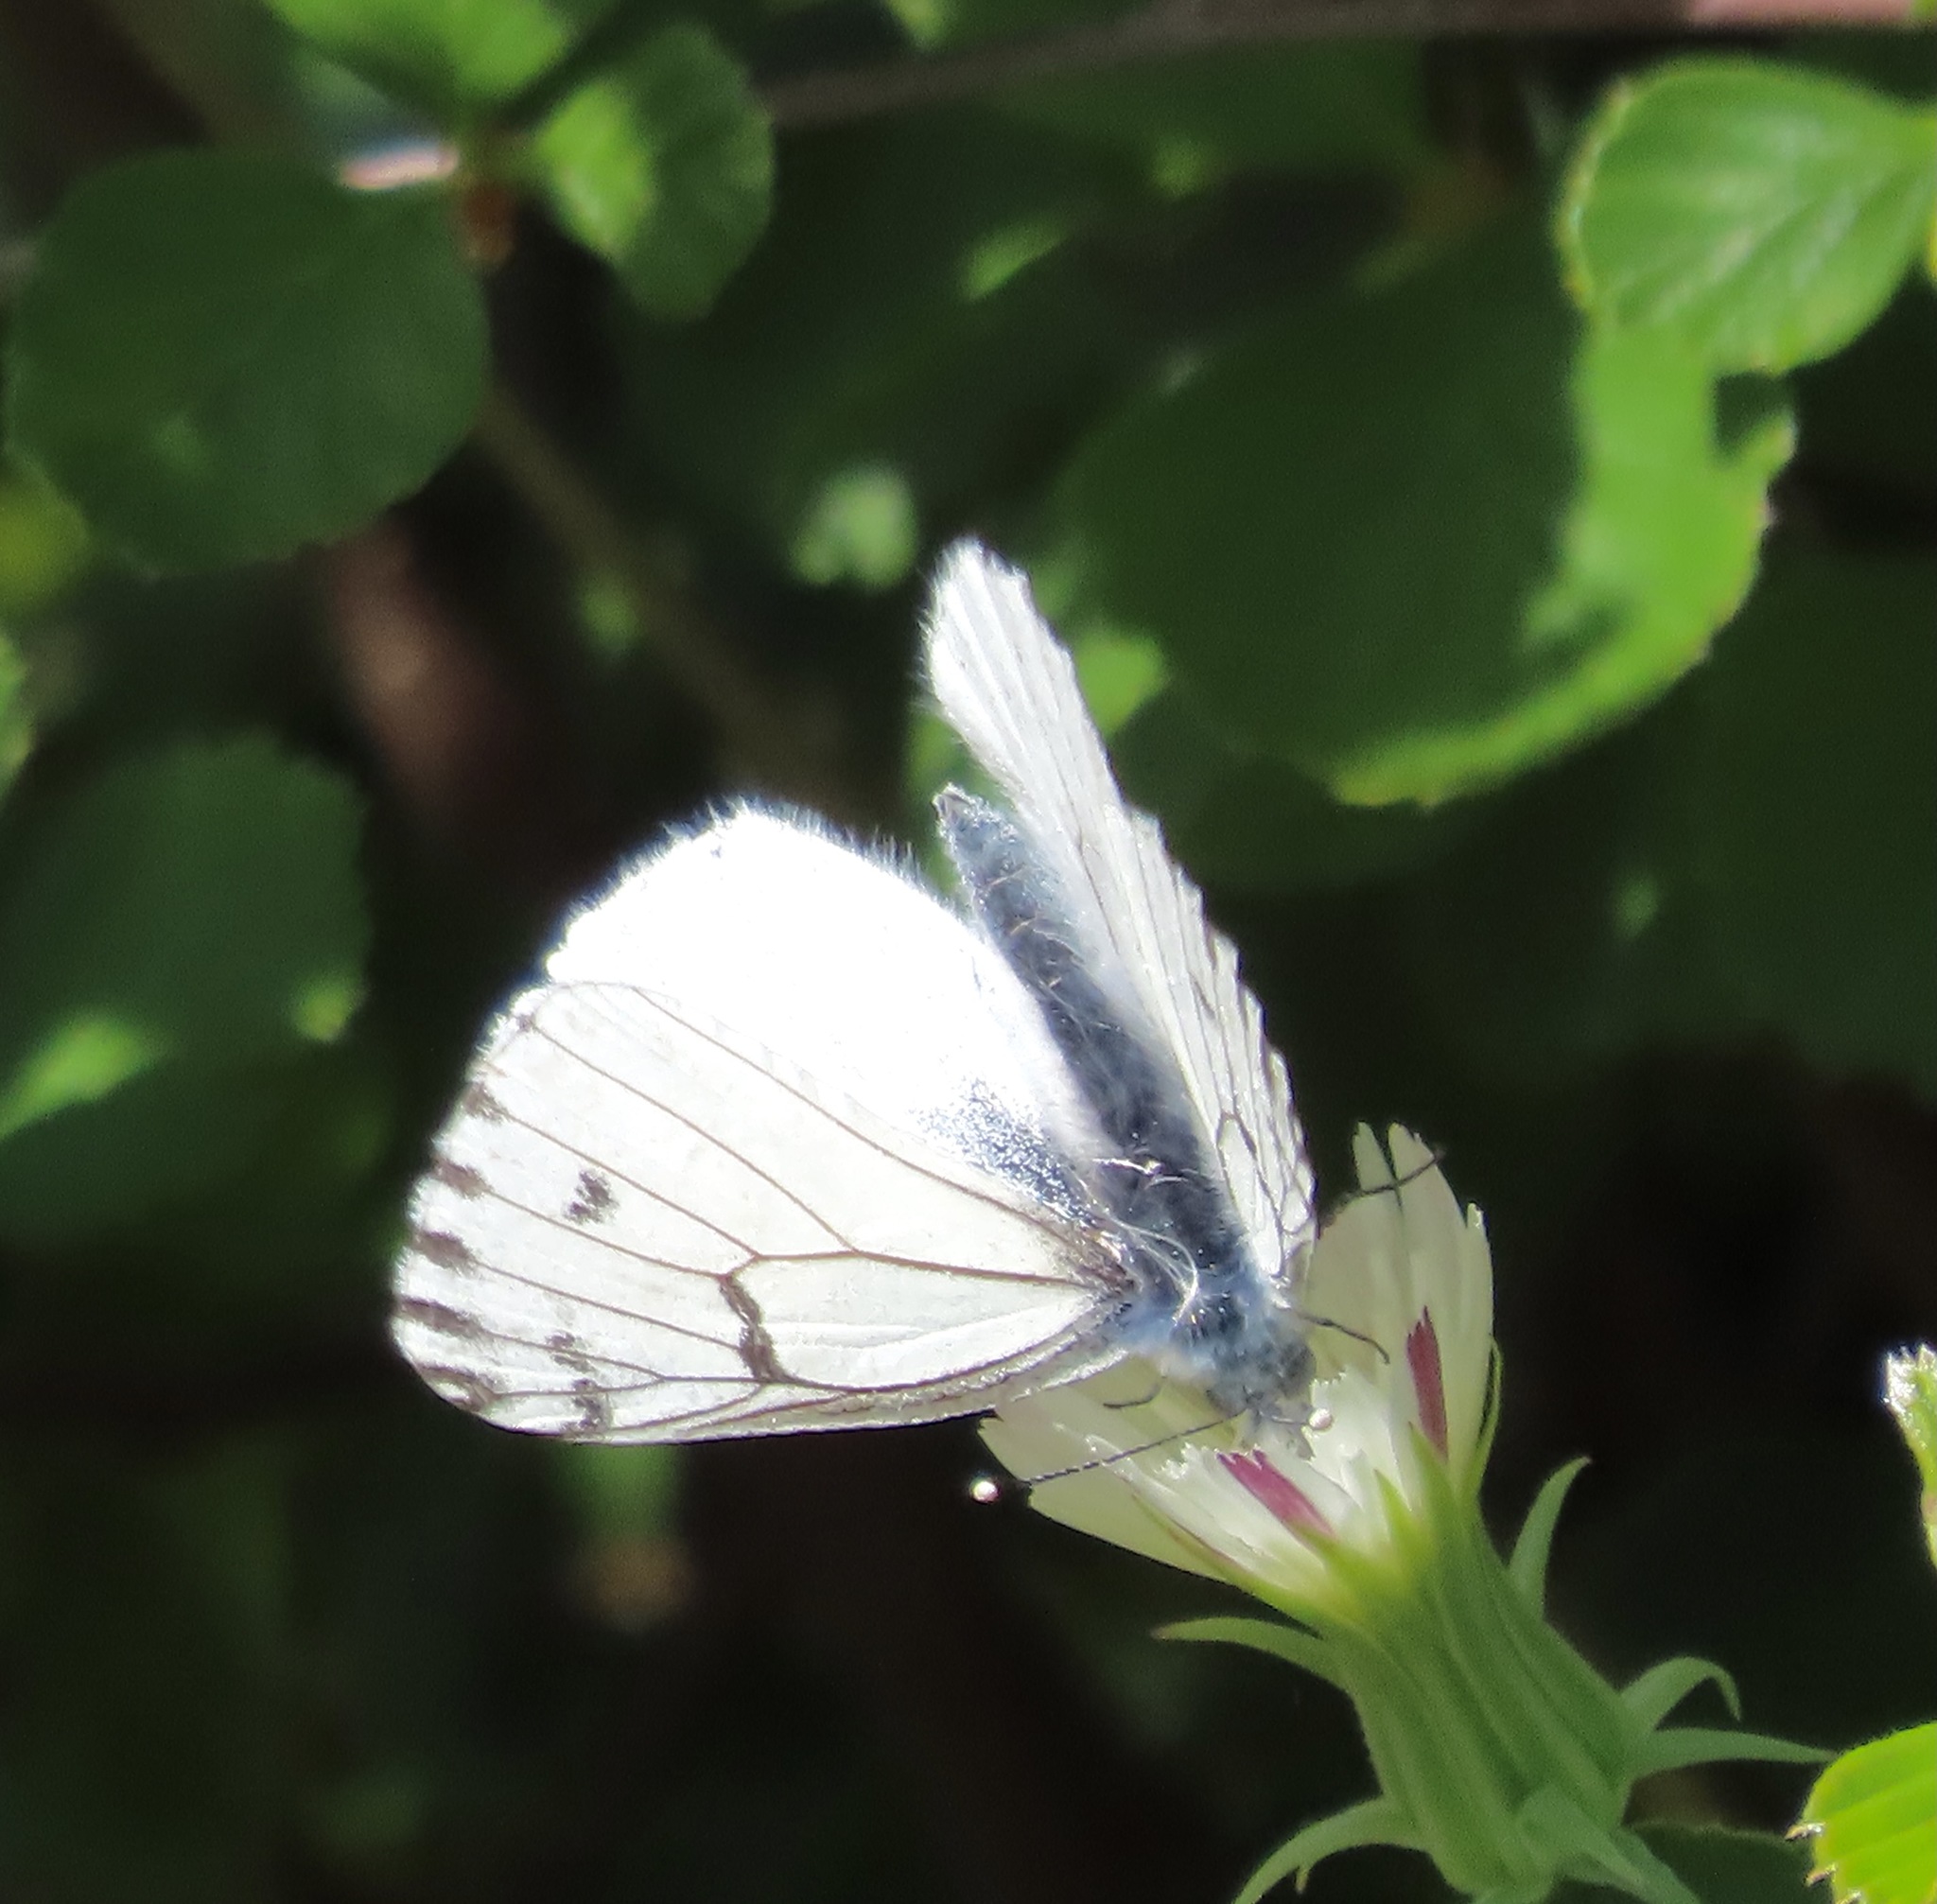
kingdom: Animalia
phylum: Arthropoda
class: Insecta
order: Lepidoptera
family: Pieridae
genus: Pontia
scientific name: Pontia sisymbrii
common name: California white
